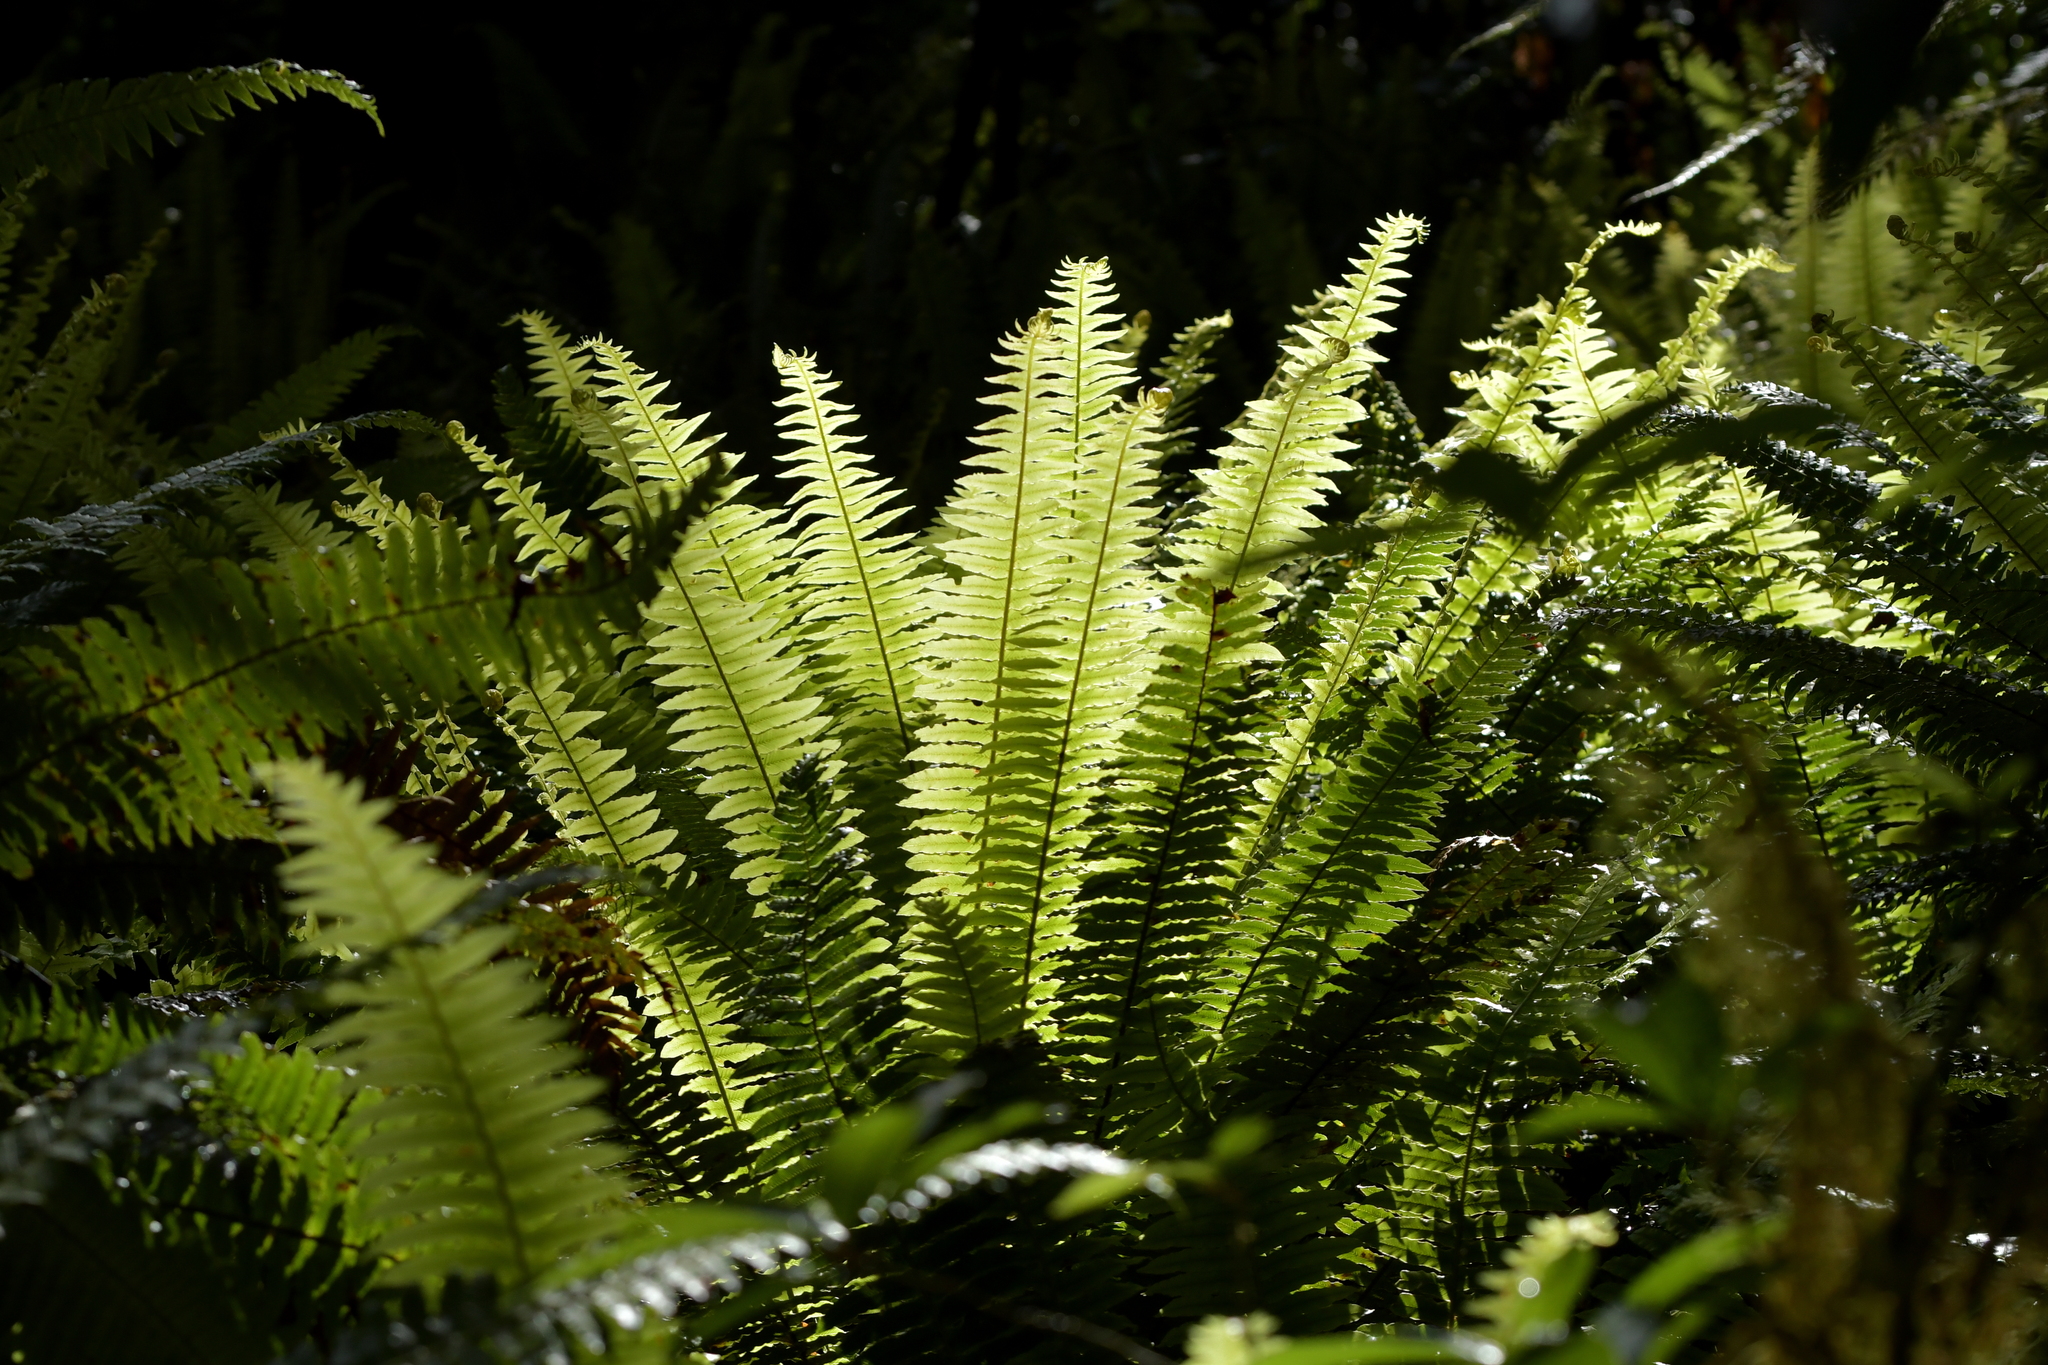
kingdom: Plantae
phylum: Tracheophyta
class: Polypodiopsida
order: Polypodiales
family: Blechnaceae
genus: Lomaria
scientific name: Lomaria discolor
